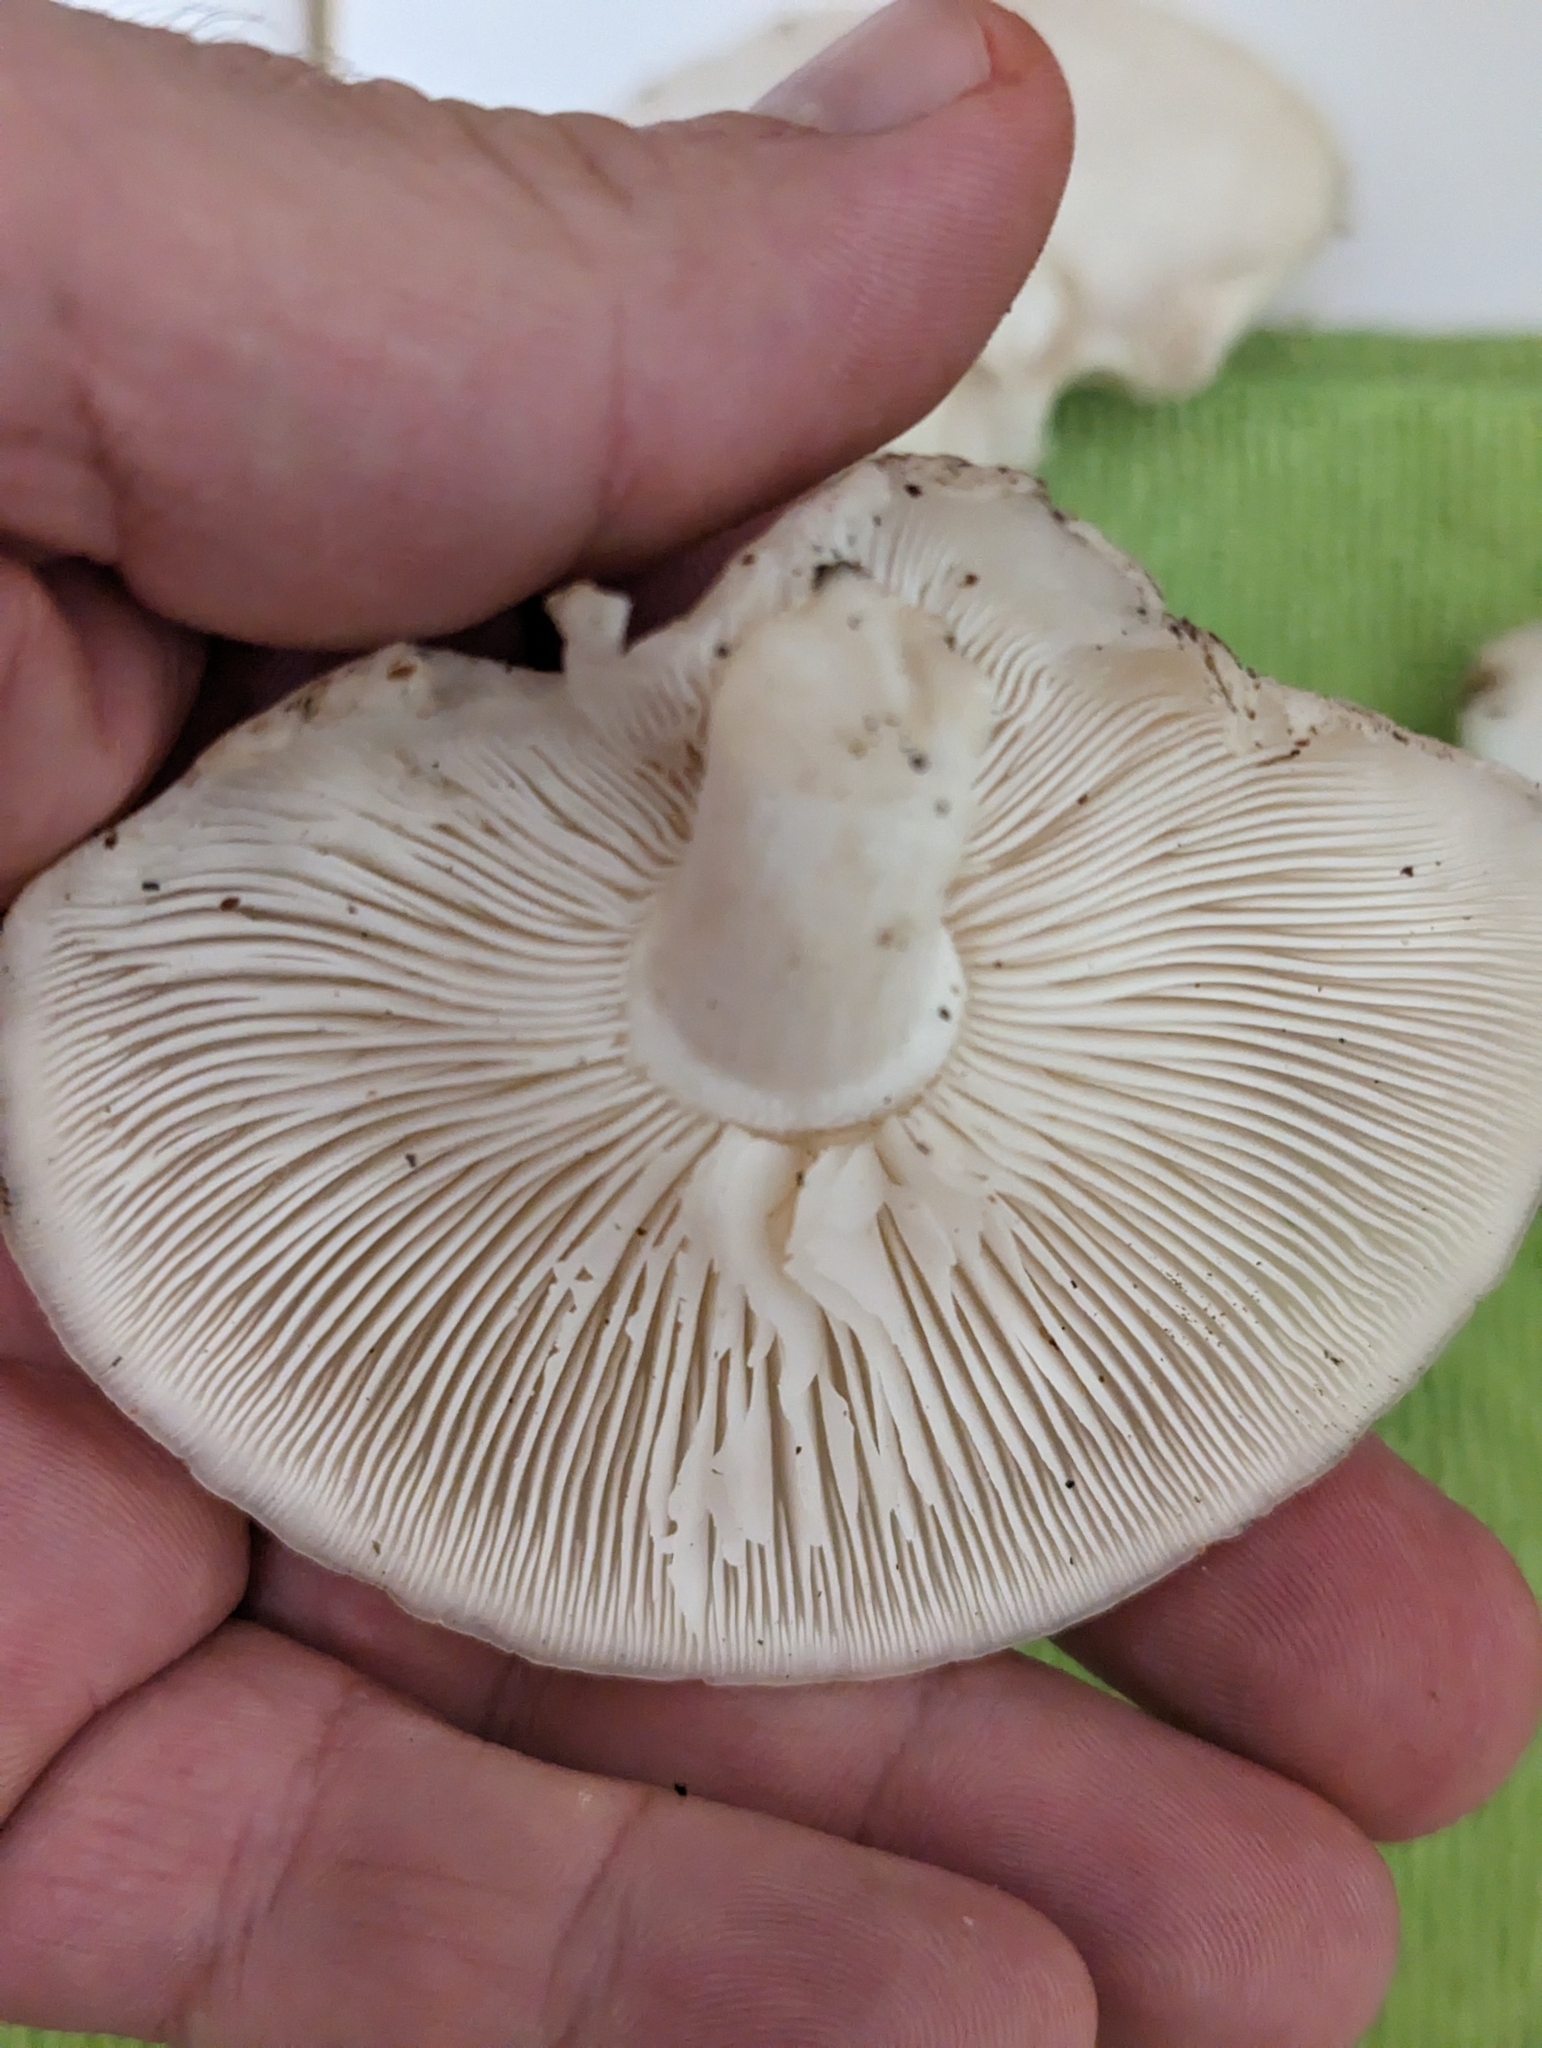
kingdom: Fungi
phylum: Basidiomycota
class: Agaricomycetes
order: Agaricales
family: Lyophyllaceae
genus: Hypsizygus
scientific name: Hypsizygus ulmarius
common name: Elm leech
